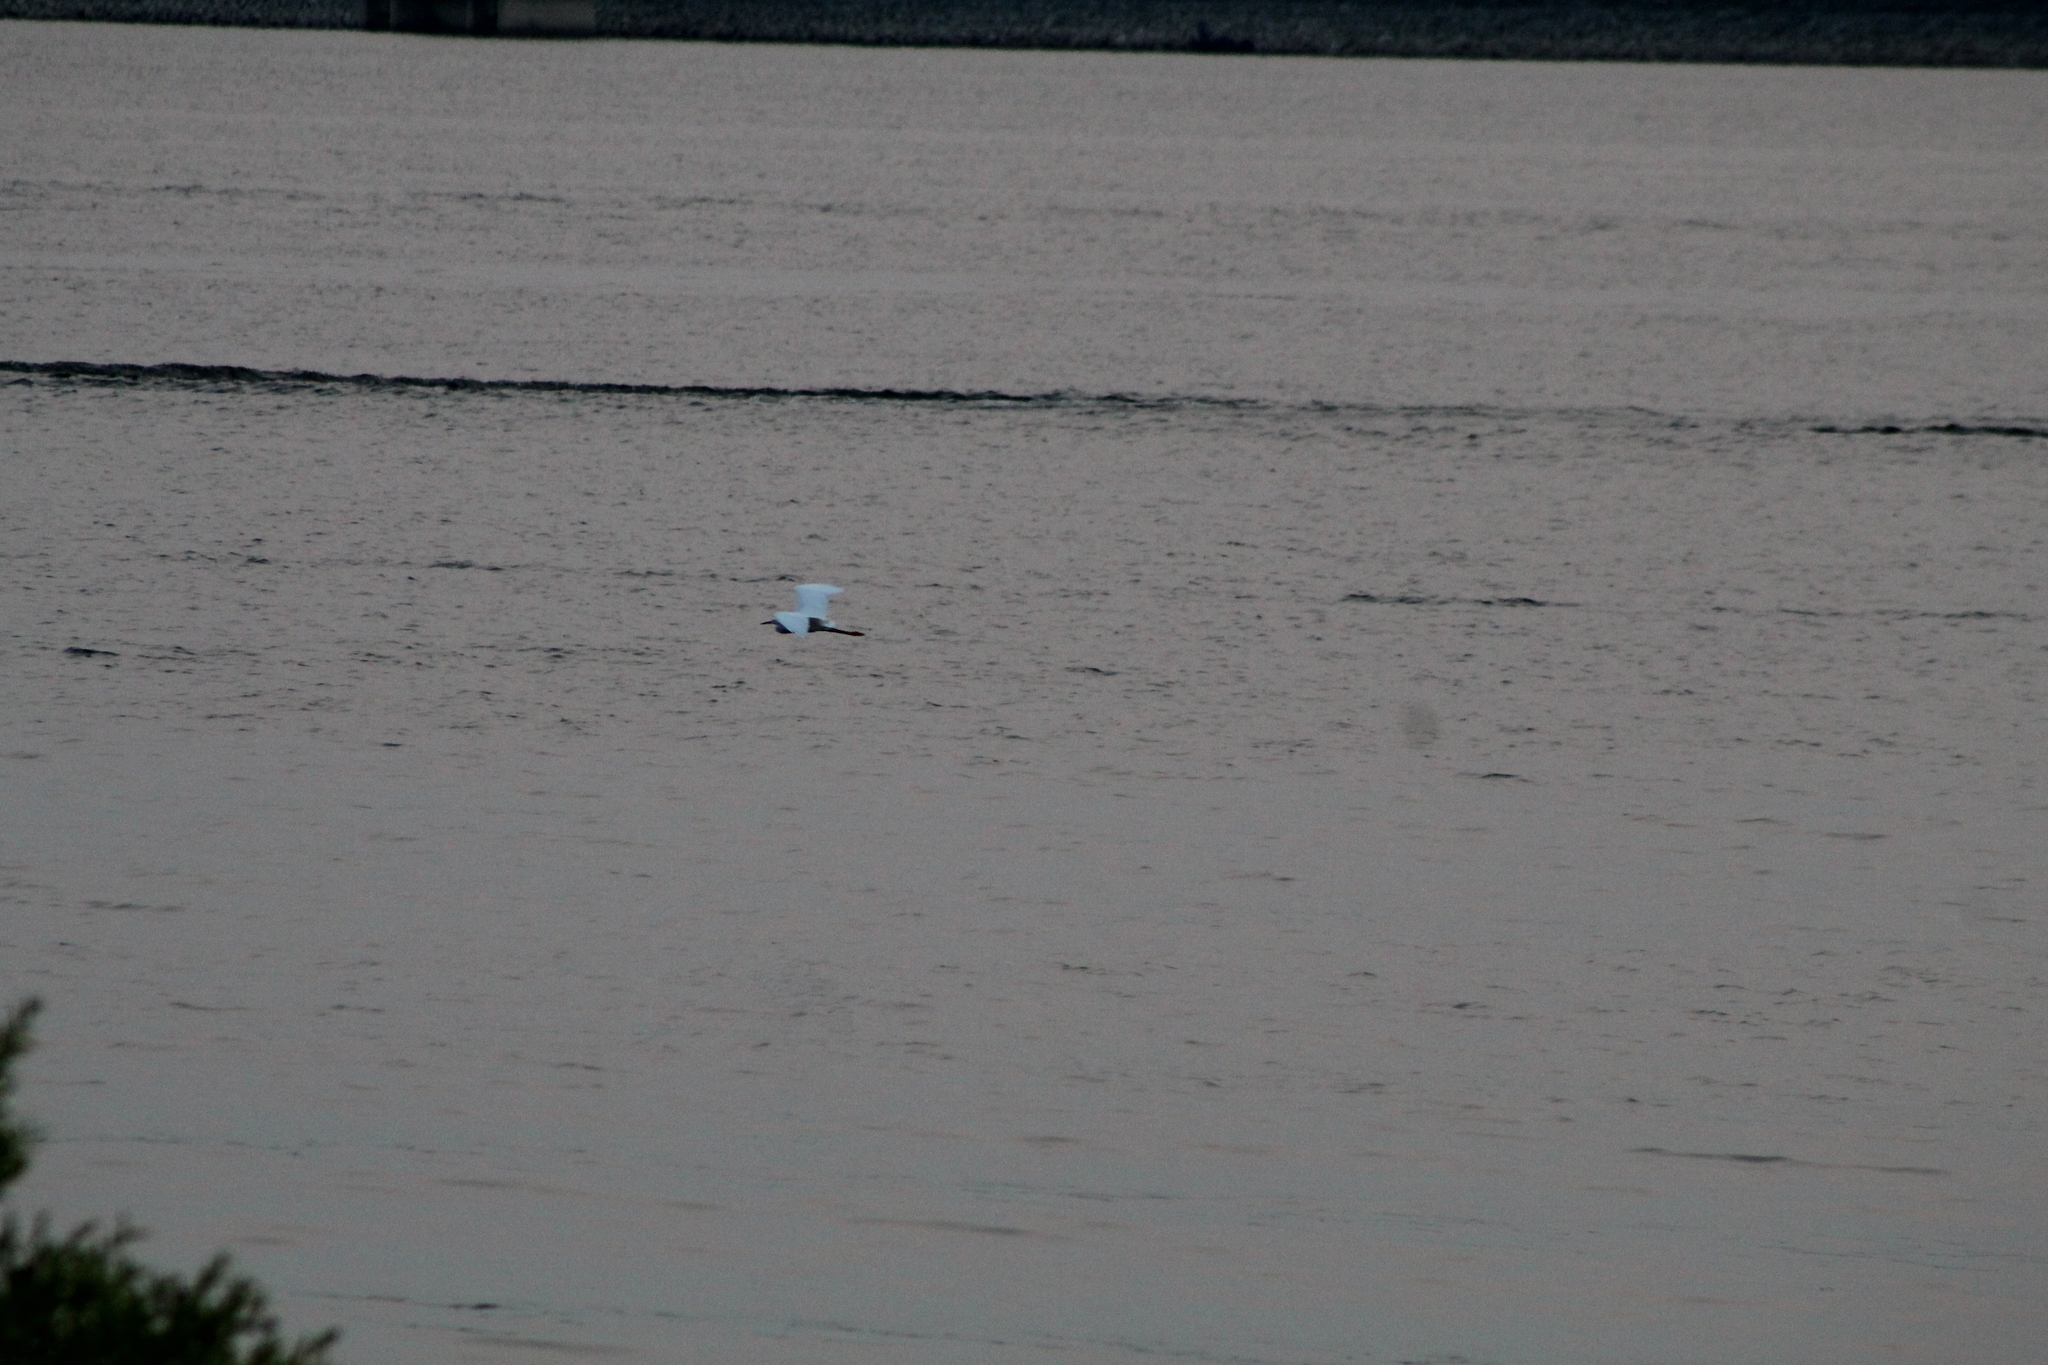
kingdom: Animalia
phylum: Chordata
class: Aves
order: Pelecaniformes
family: Ardeidae
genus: Ardea
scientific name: Ardea alba
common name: Great egret
